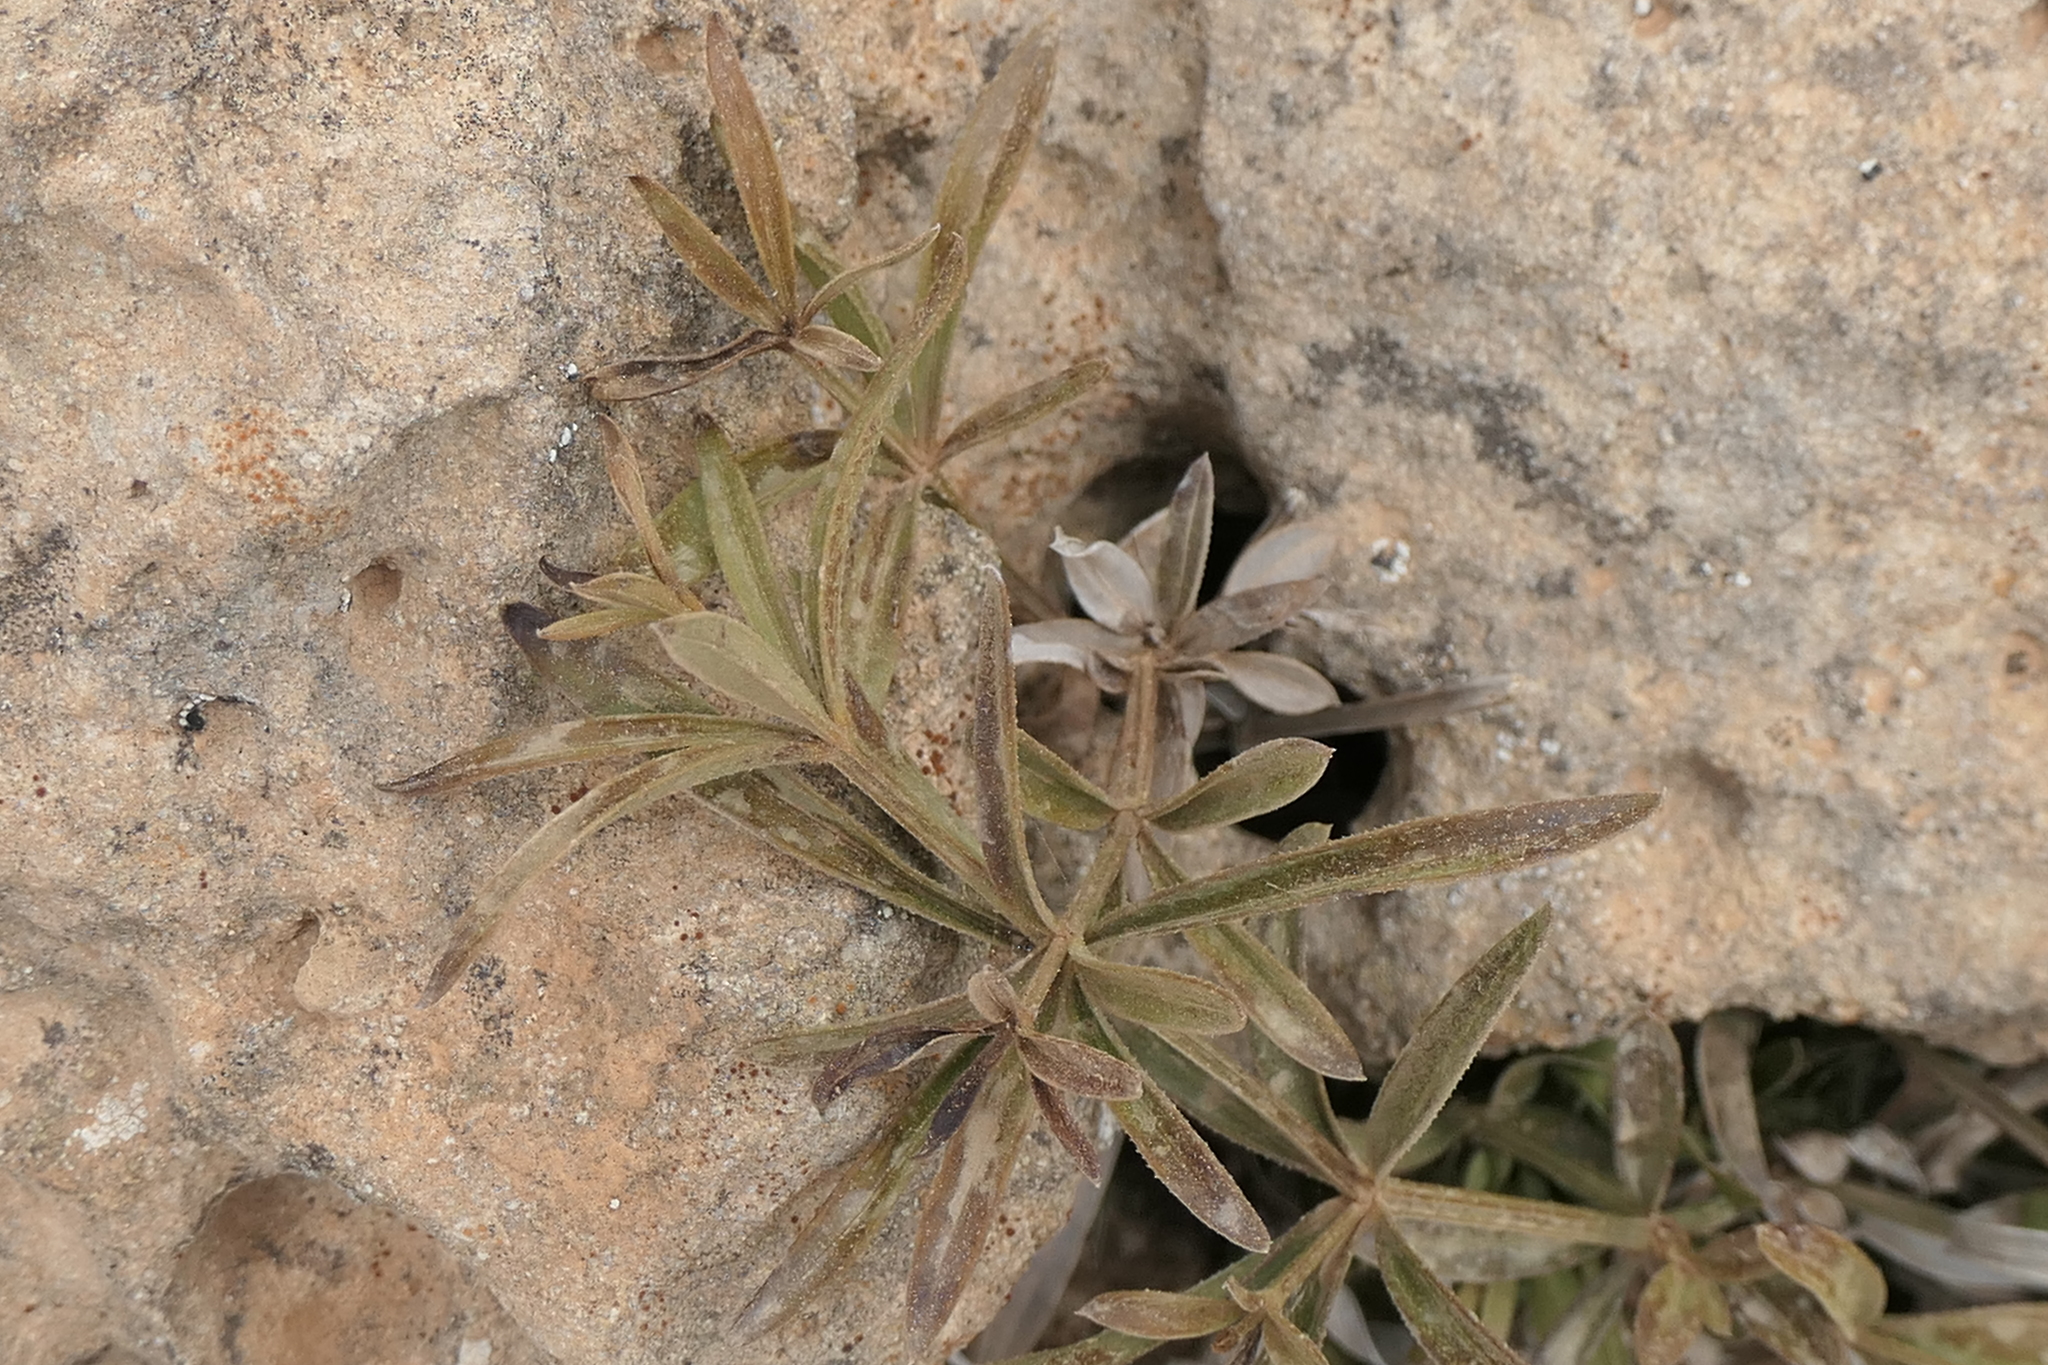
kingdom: Plantae
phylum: Tracheophyta
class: Magnoliopsida
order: Gentianales
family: Rubiaceae
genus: Rubia
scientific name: Rubia peregrina
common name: Wild madder
